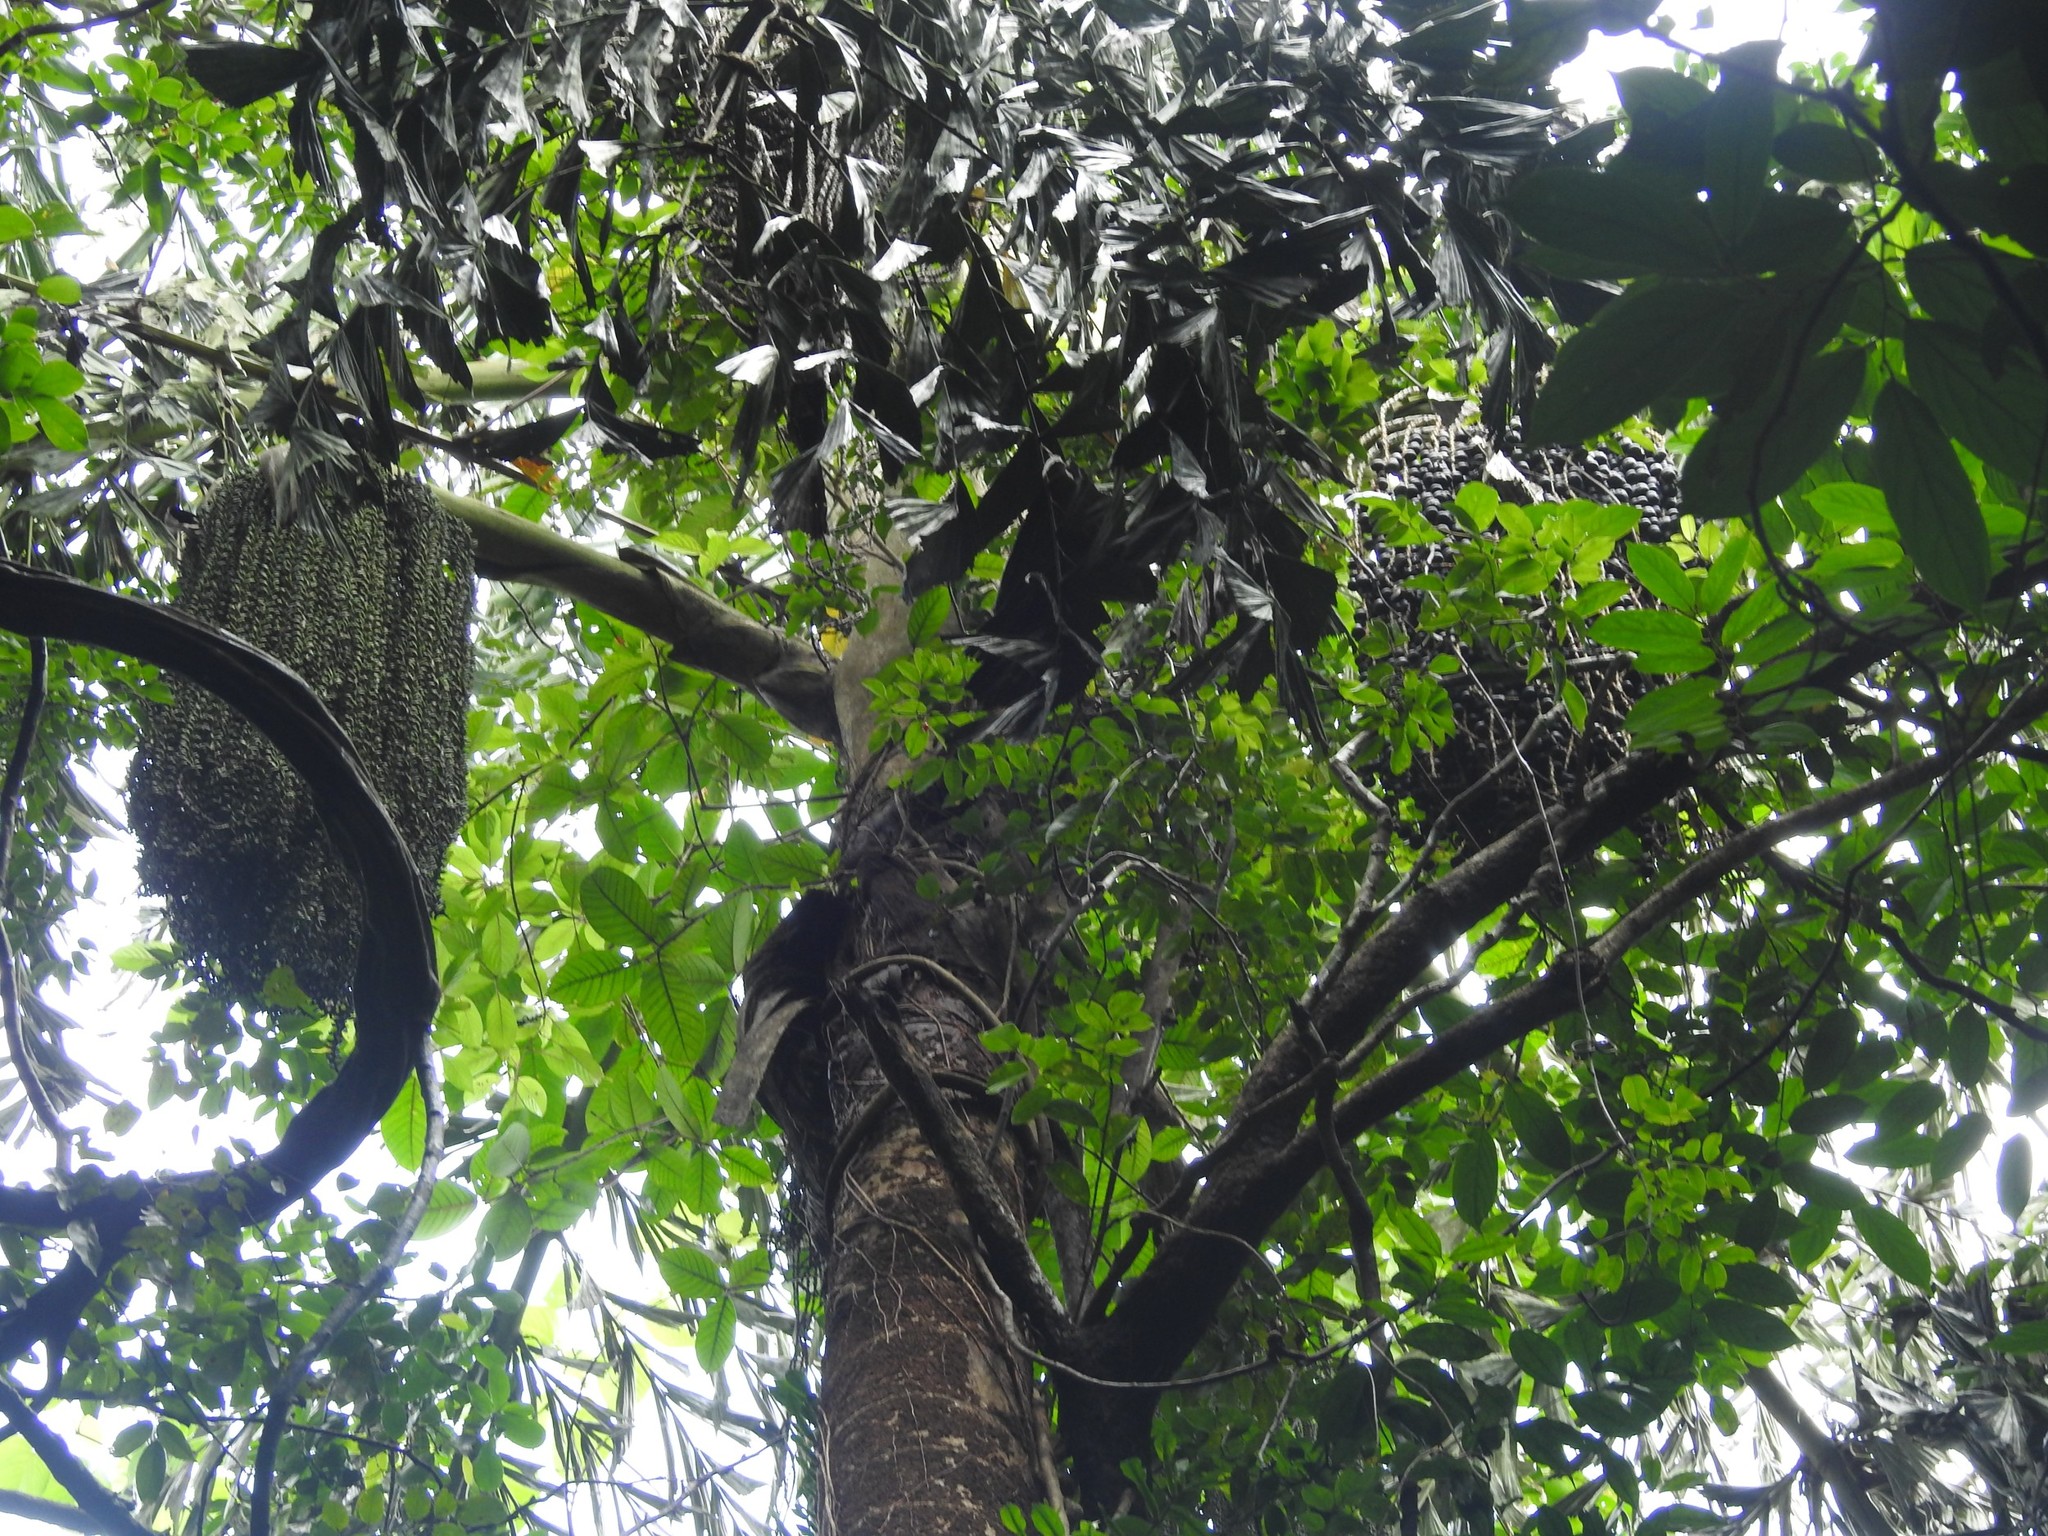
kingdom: Plantae
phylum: Tracheophyta
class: Liliopsida
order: Arecales
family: Arecaceae
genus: Caryota
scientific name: Caryota urens
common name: Jaggery palm
